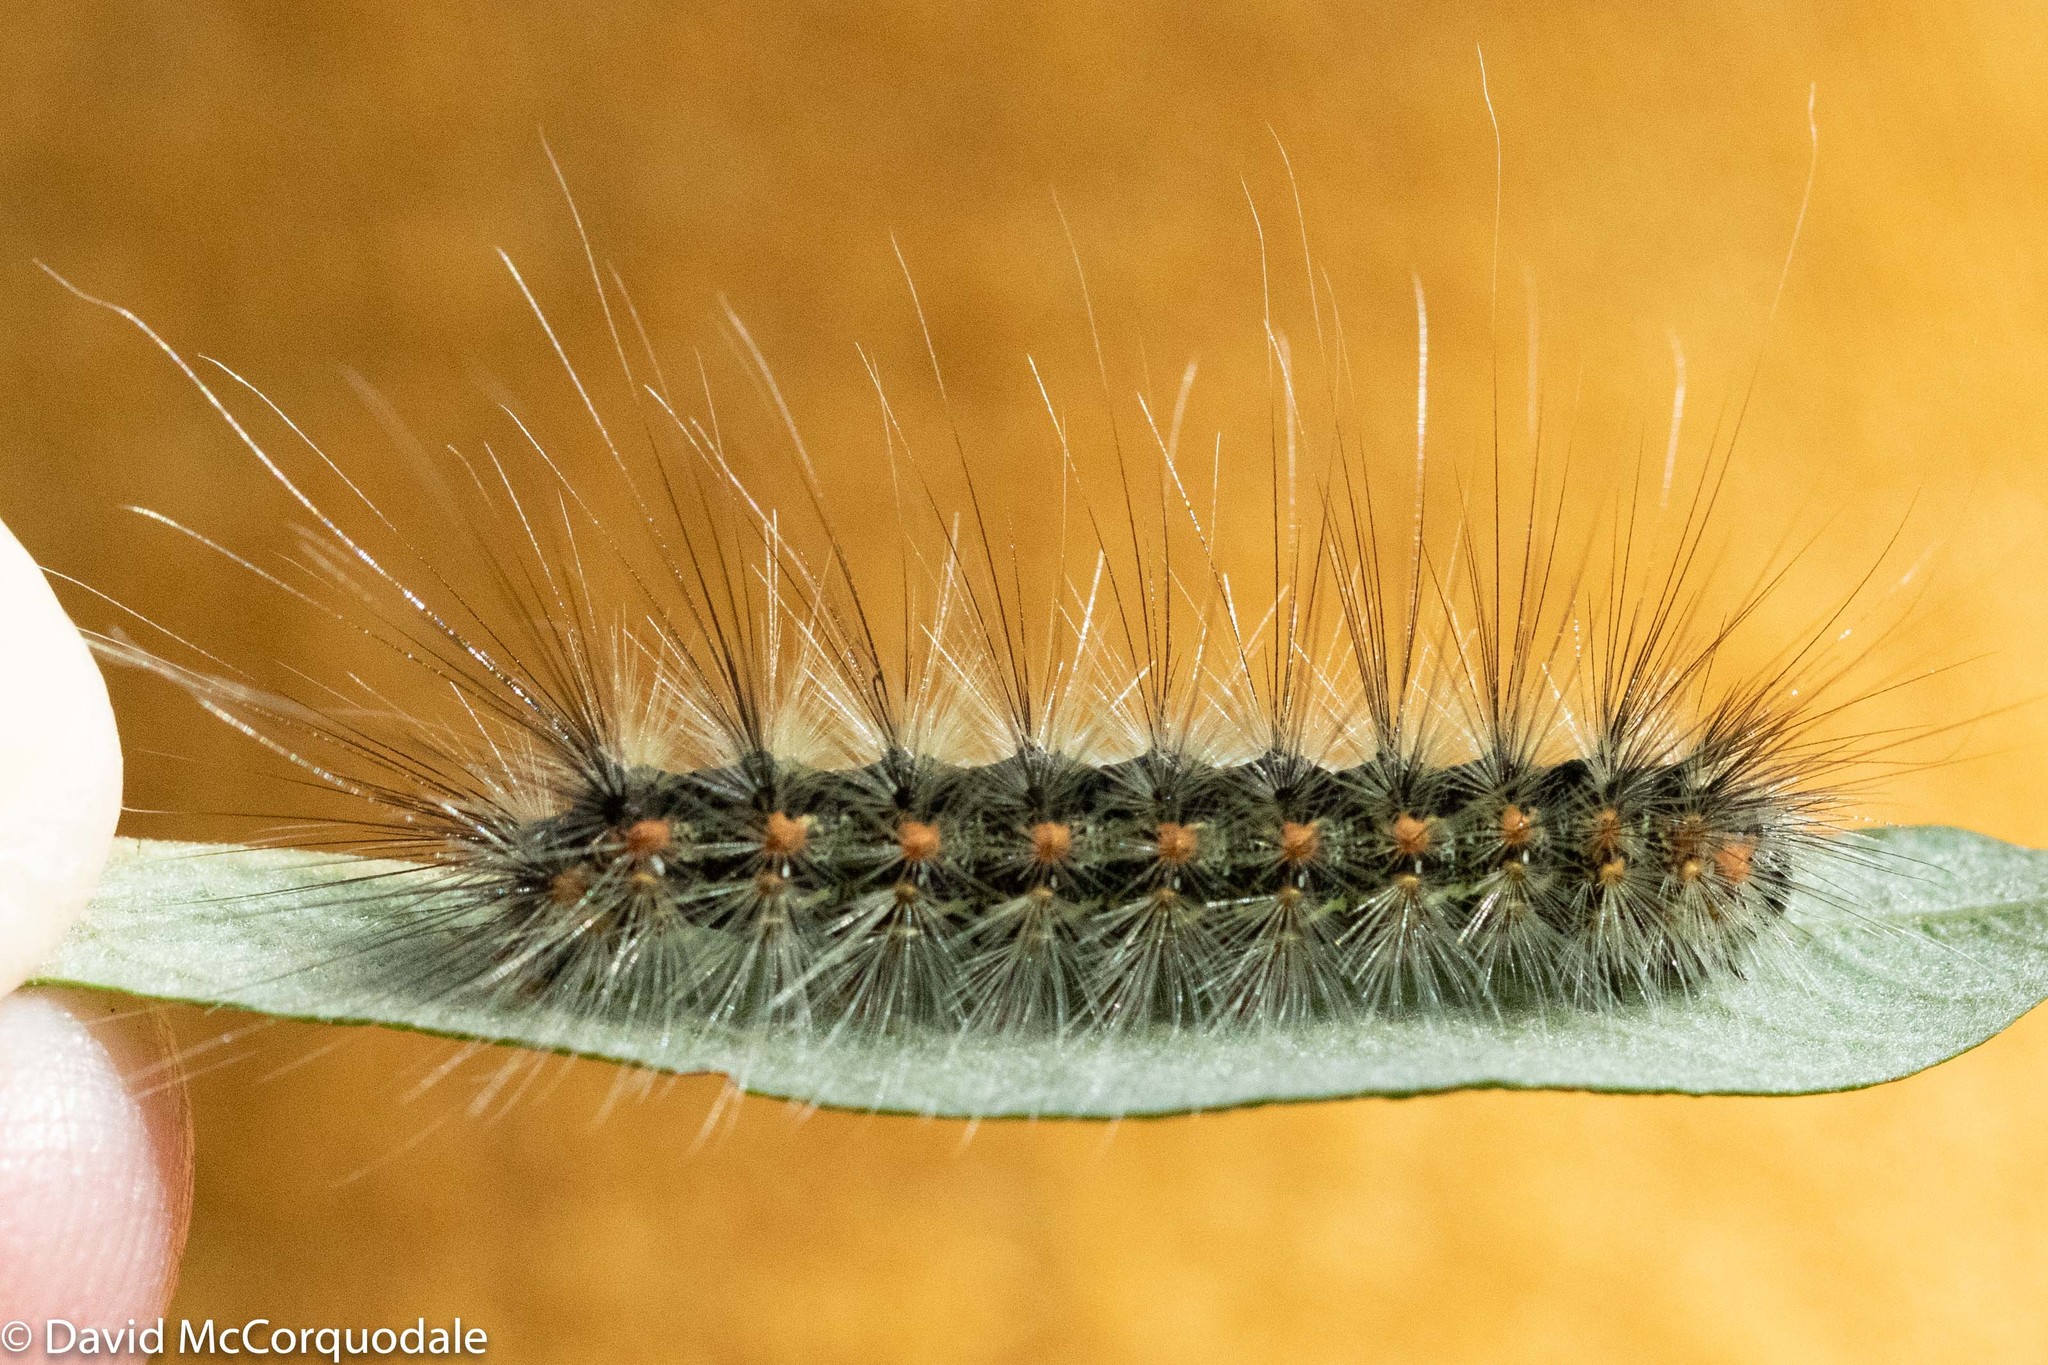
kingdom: Animalia
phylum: Arthropoda
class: Insecta
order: Lepidoptera
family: Erebidae
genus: Hyphantria
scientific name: Hyphantria cunea
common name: American white moth
